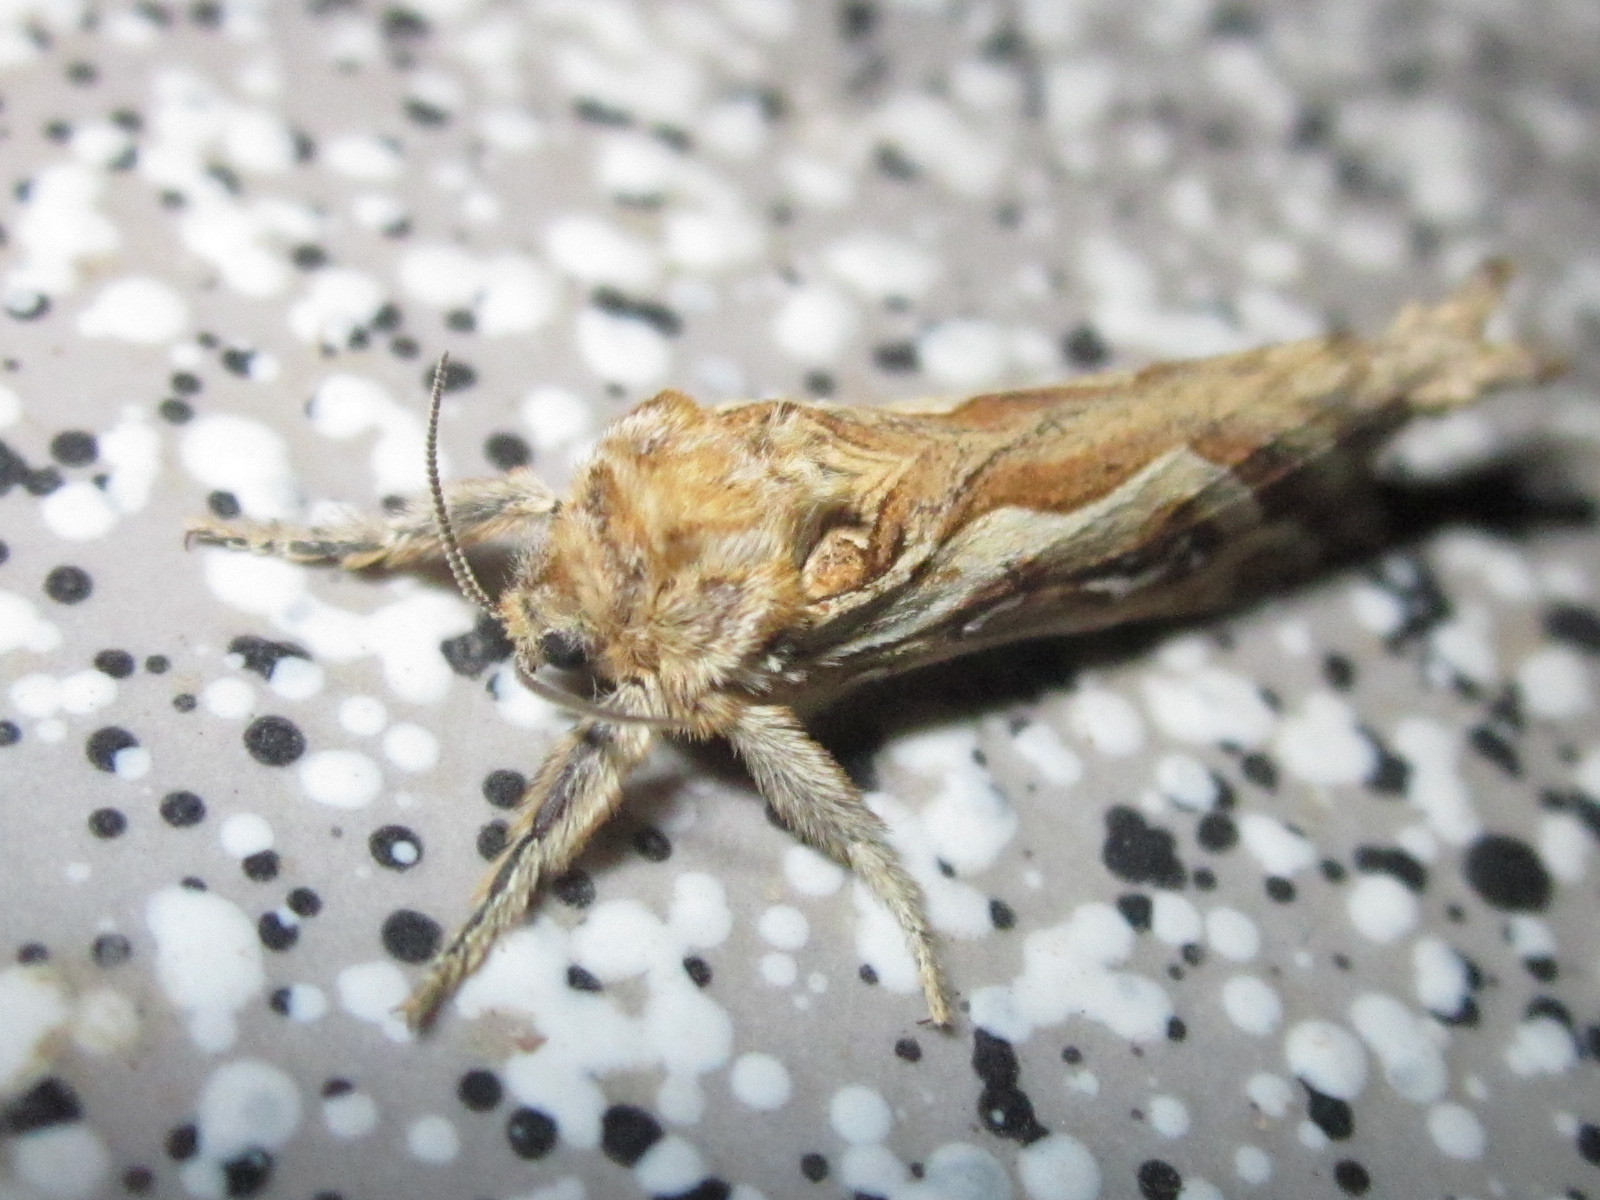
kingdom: Animalia
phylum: Arthropoda
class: Insecta
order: Lepidoptera
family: Hepialidae
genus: Puermytrans
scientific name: Puermytrans chiliensis
